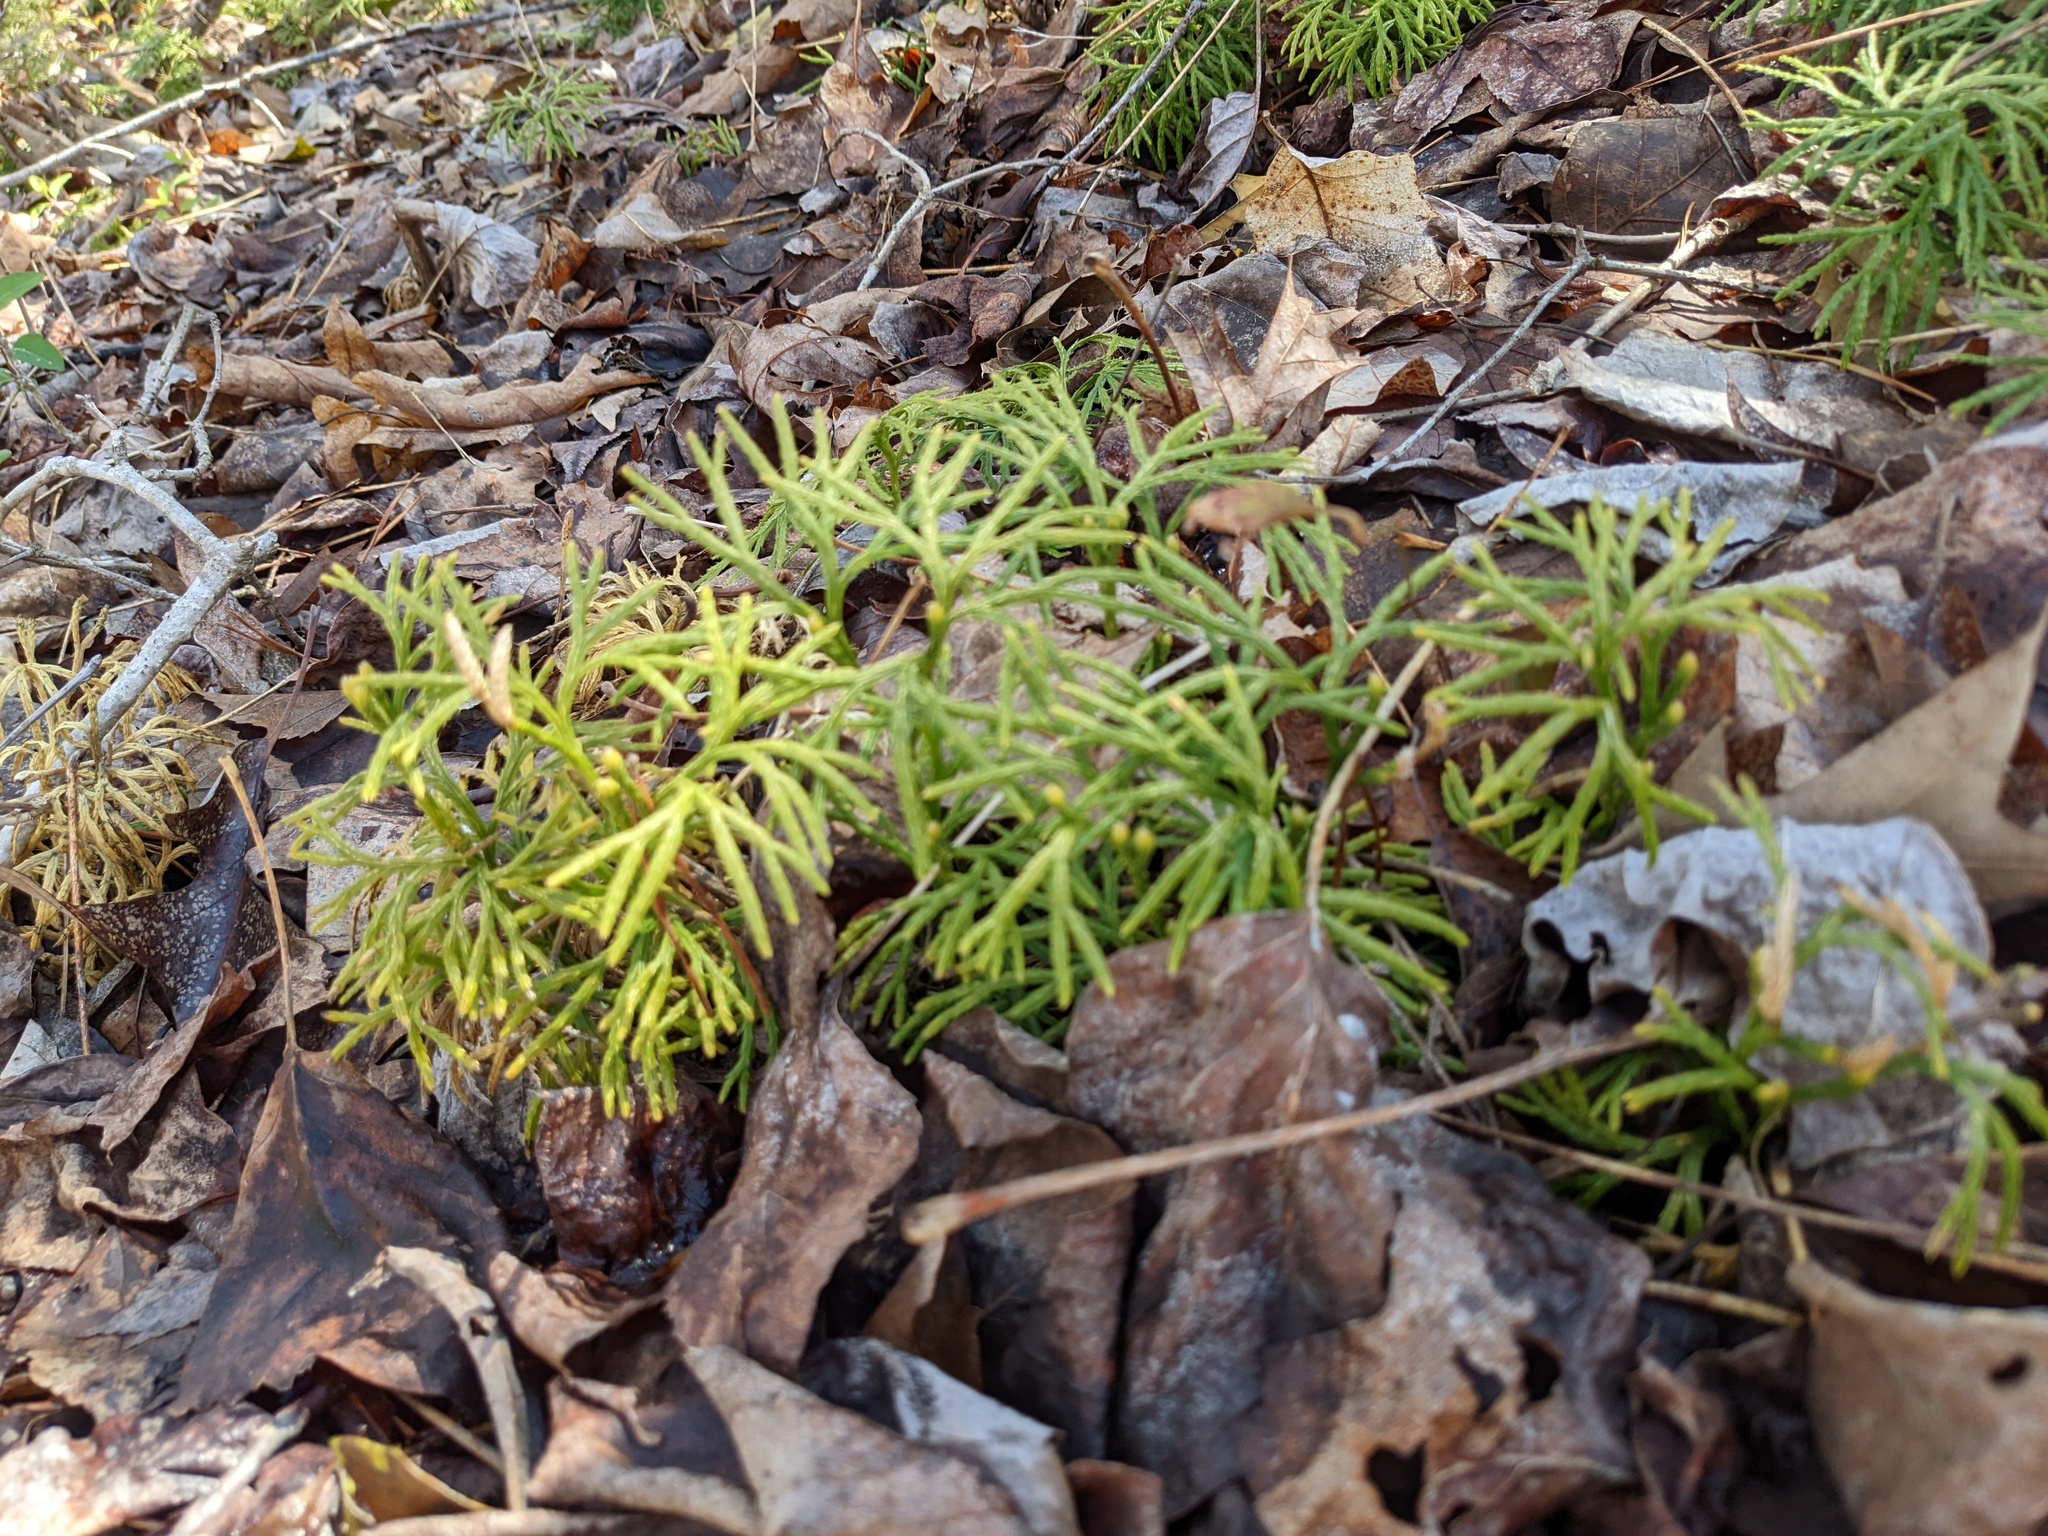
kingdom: Plantae
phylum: Tracheophyta
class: Lycopodiopsida
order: Lycopodiales
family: Lycopodiaceae
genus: Diphasiastrum
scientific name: Diphasiastrum digitatum
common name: Southern running-pine
